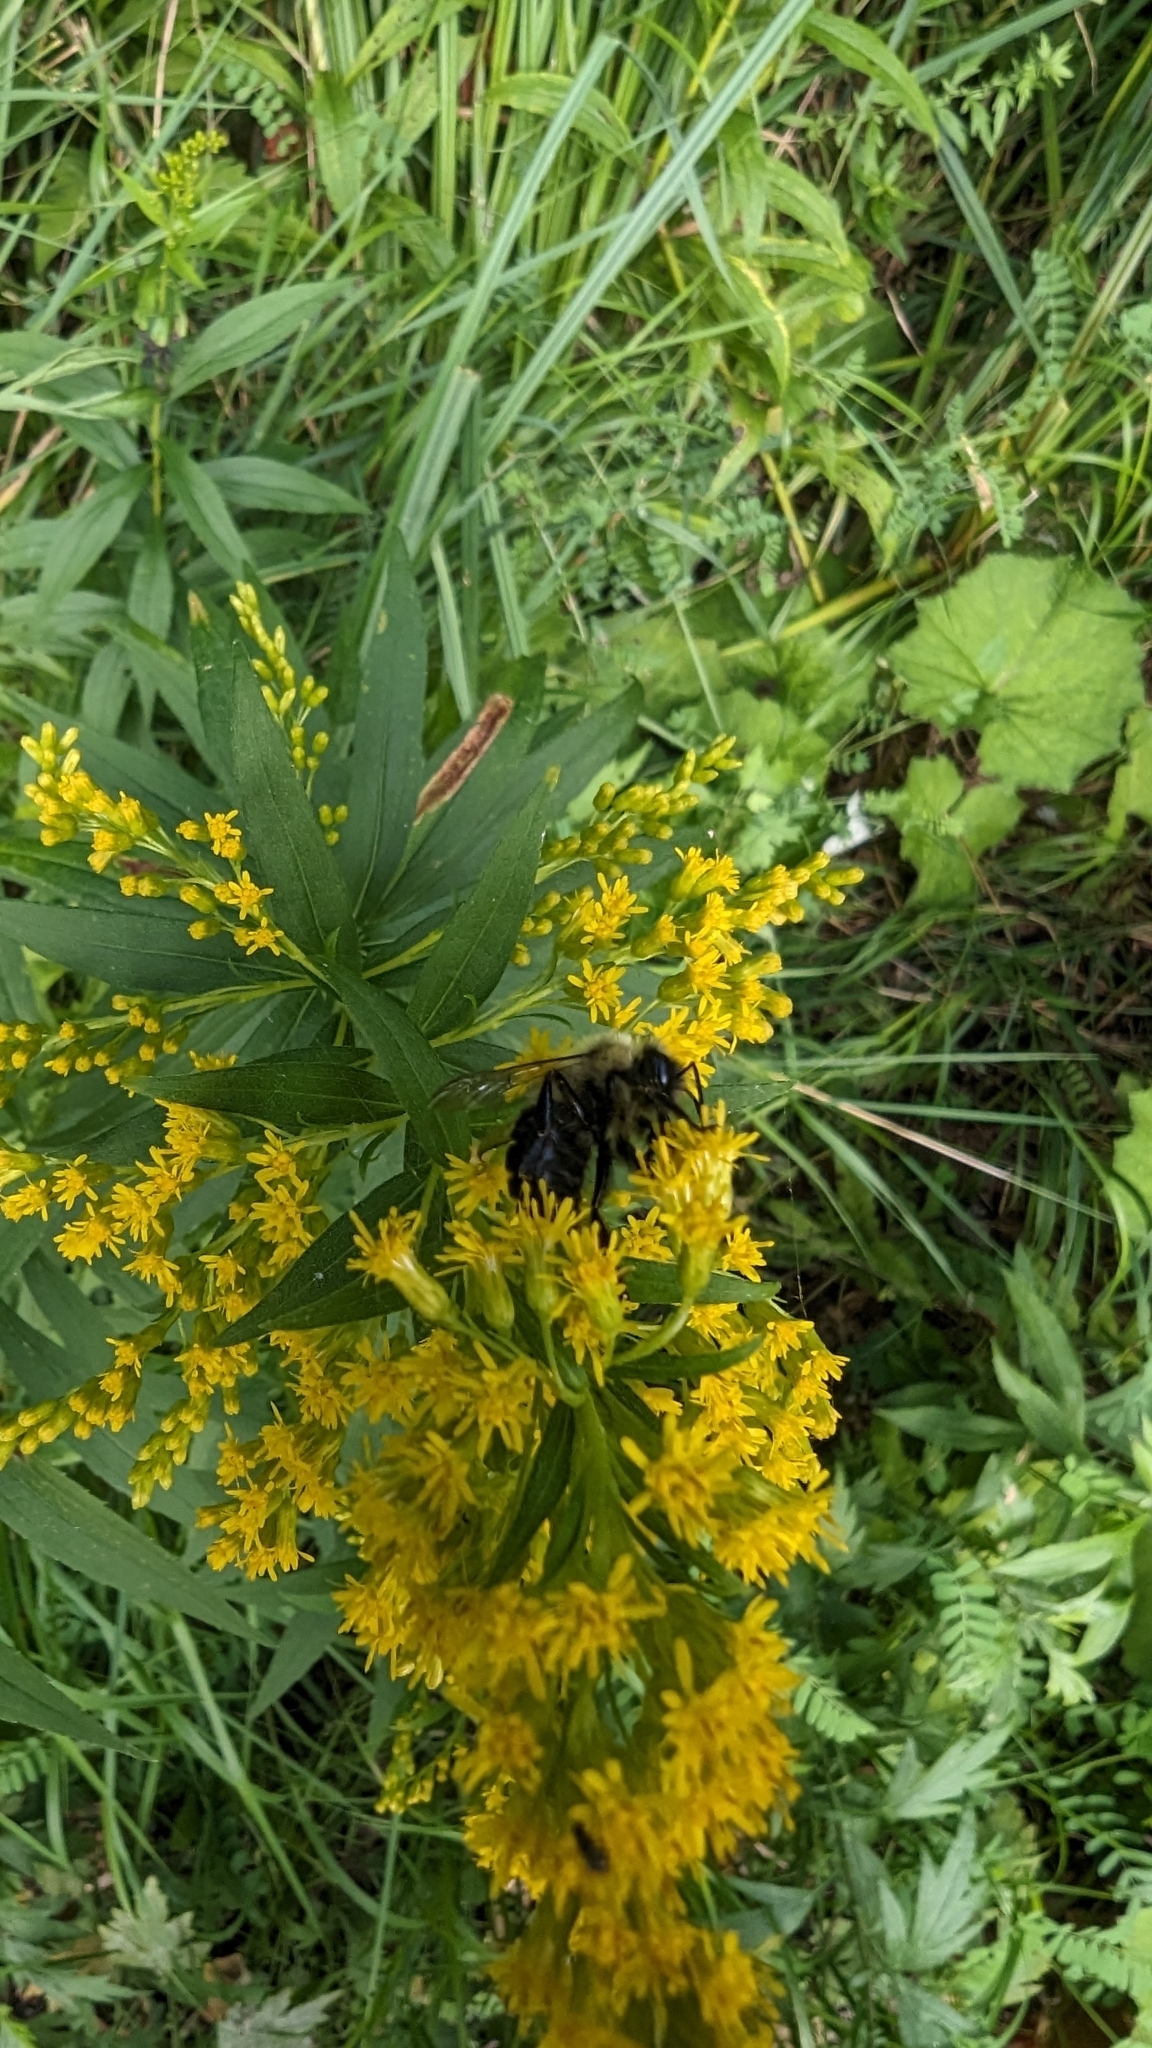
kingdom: Animalia
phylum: Arthropoda
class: Insecta
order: Hymenoptera
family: Apidae
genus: Bombus
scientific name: Bombus impatiens
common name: Common eastern bumble bee
